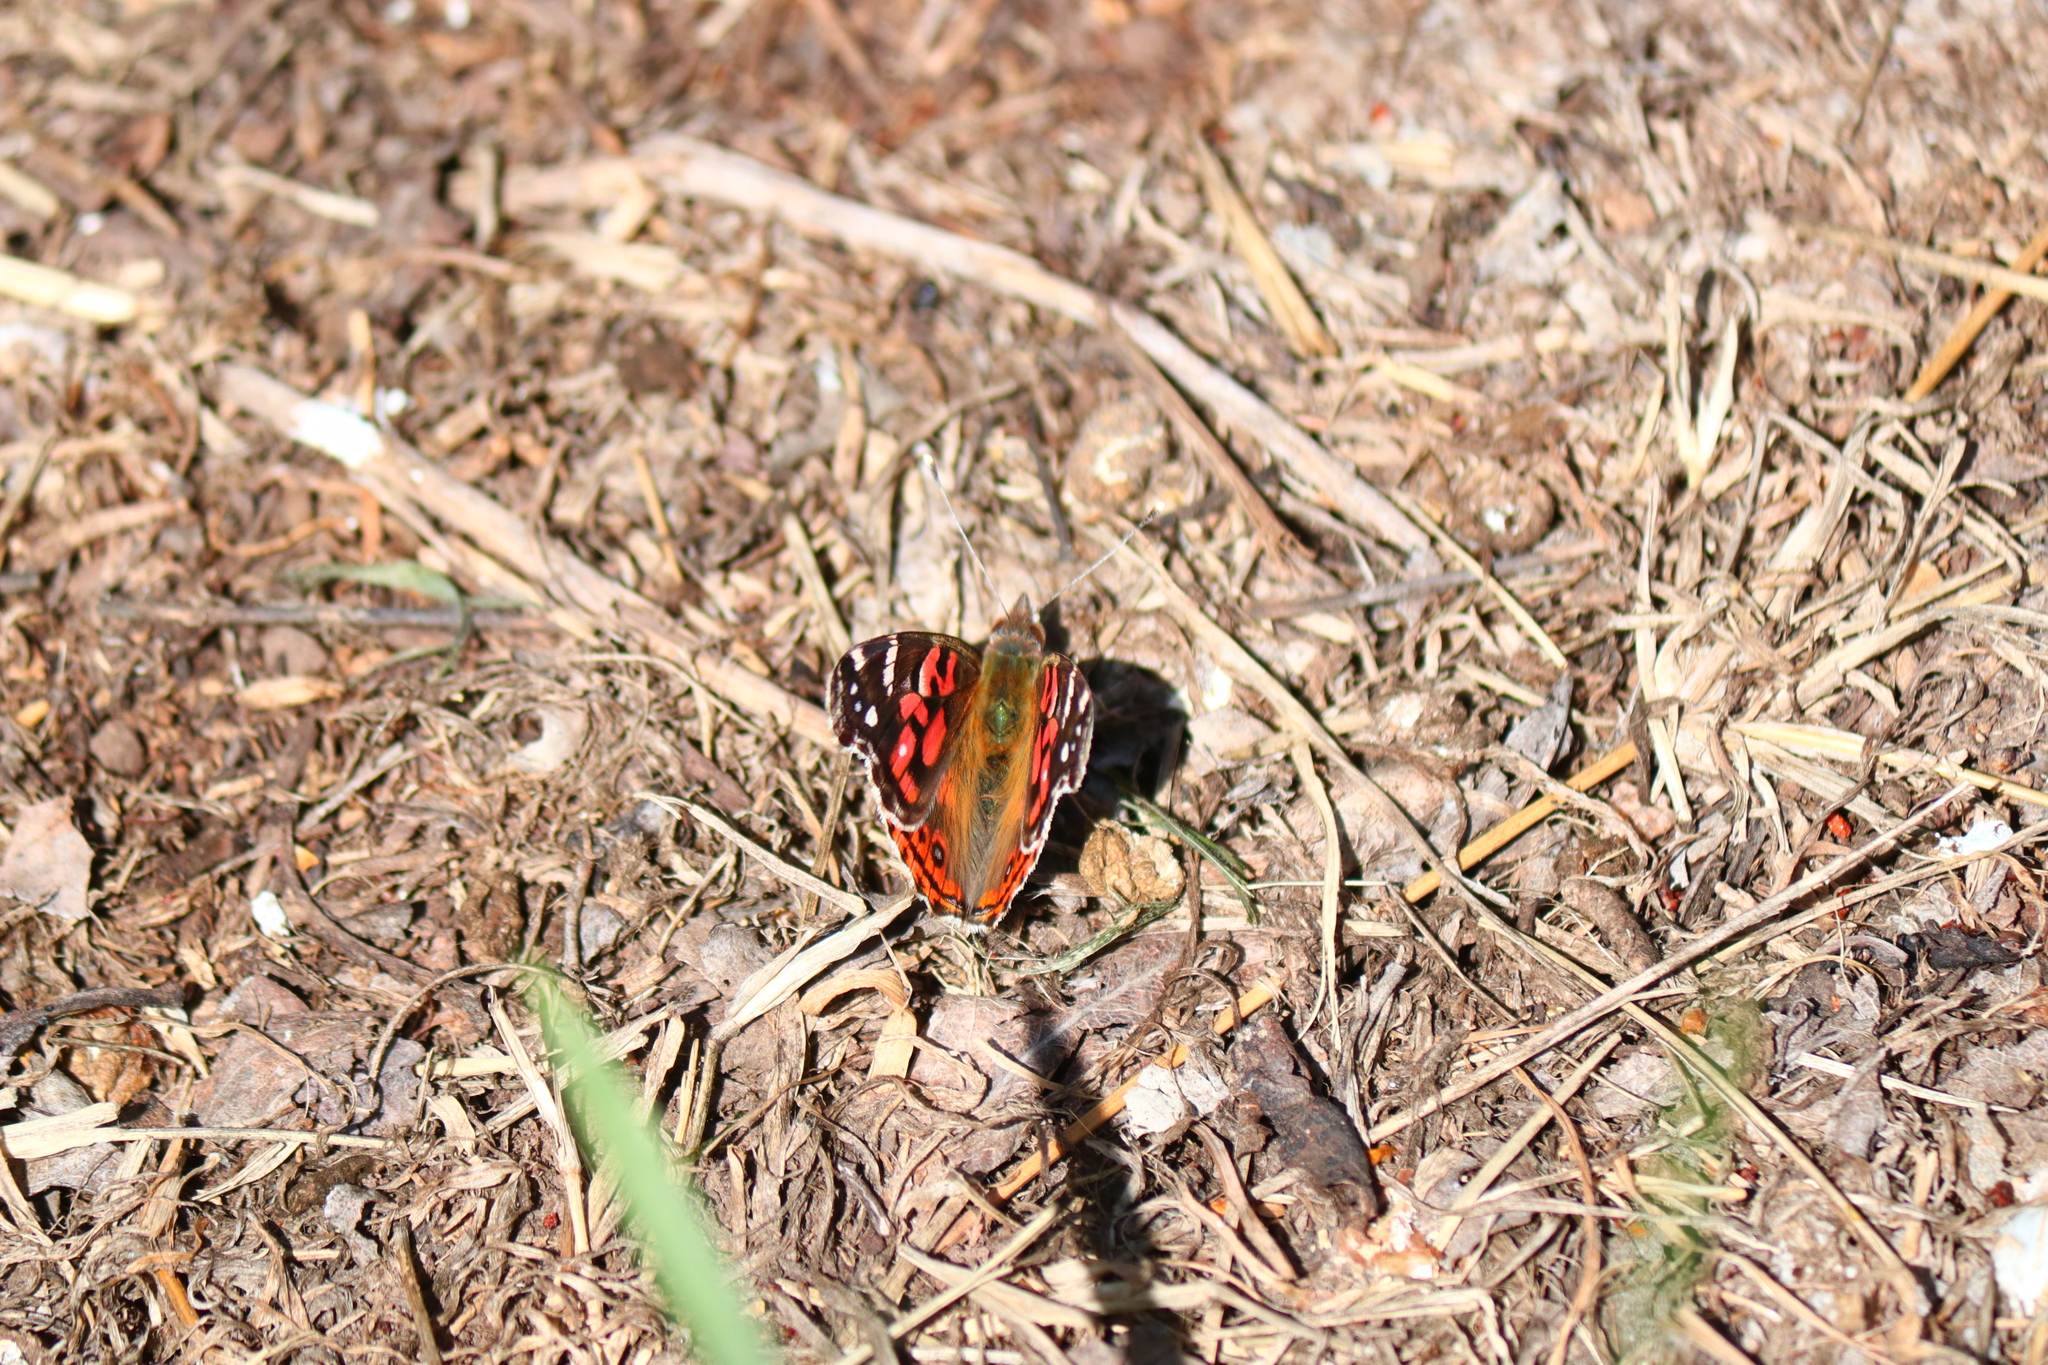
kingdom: Animalia
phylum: Arthropoda
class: Insecta
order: Lepidoptera
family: Nymphalidae
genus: Vanessa
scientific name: Vanessa braziliensis
